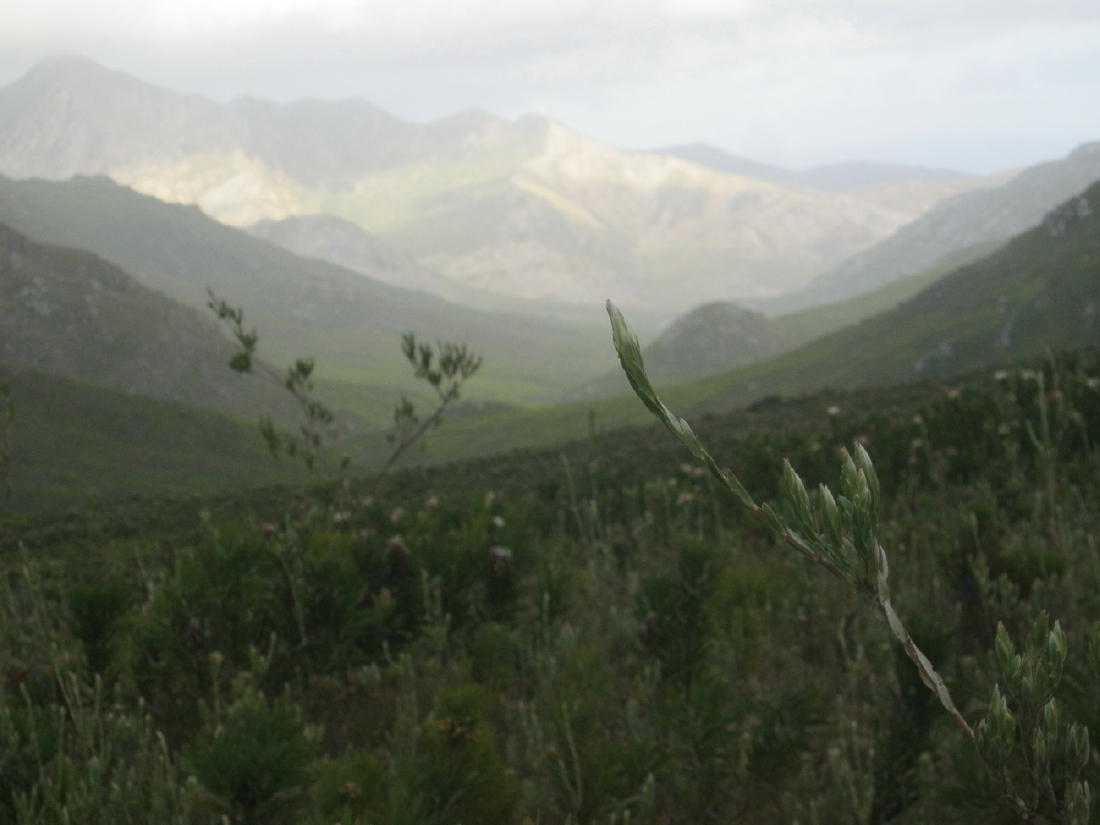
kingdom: Plantae
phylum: Tracheophyta
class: Magnoliopsida
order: Proteales
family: Proteaceae
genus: Leucadendron
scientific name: Leucadendron uliginosum
